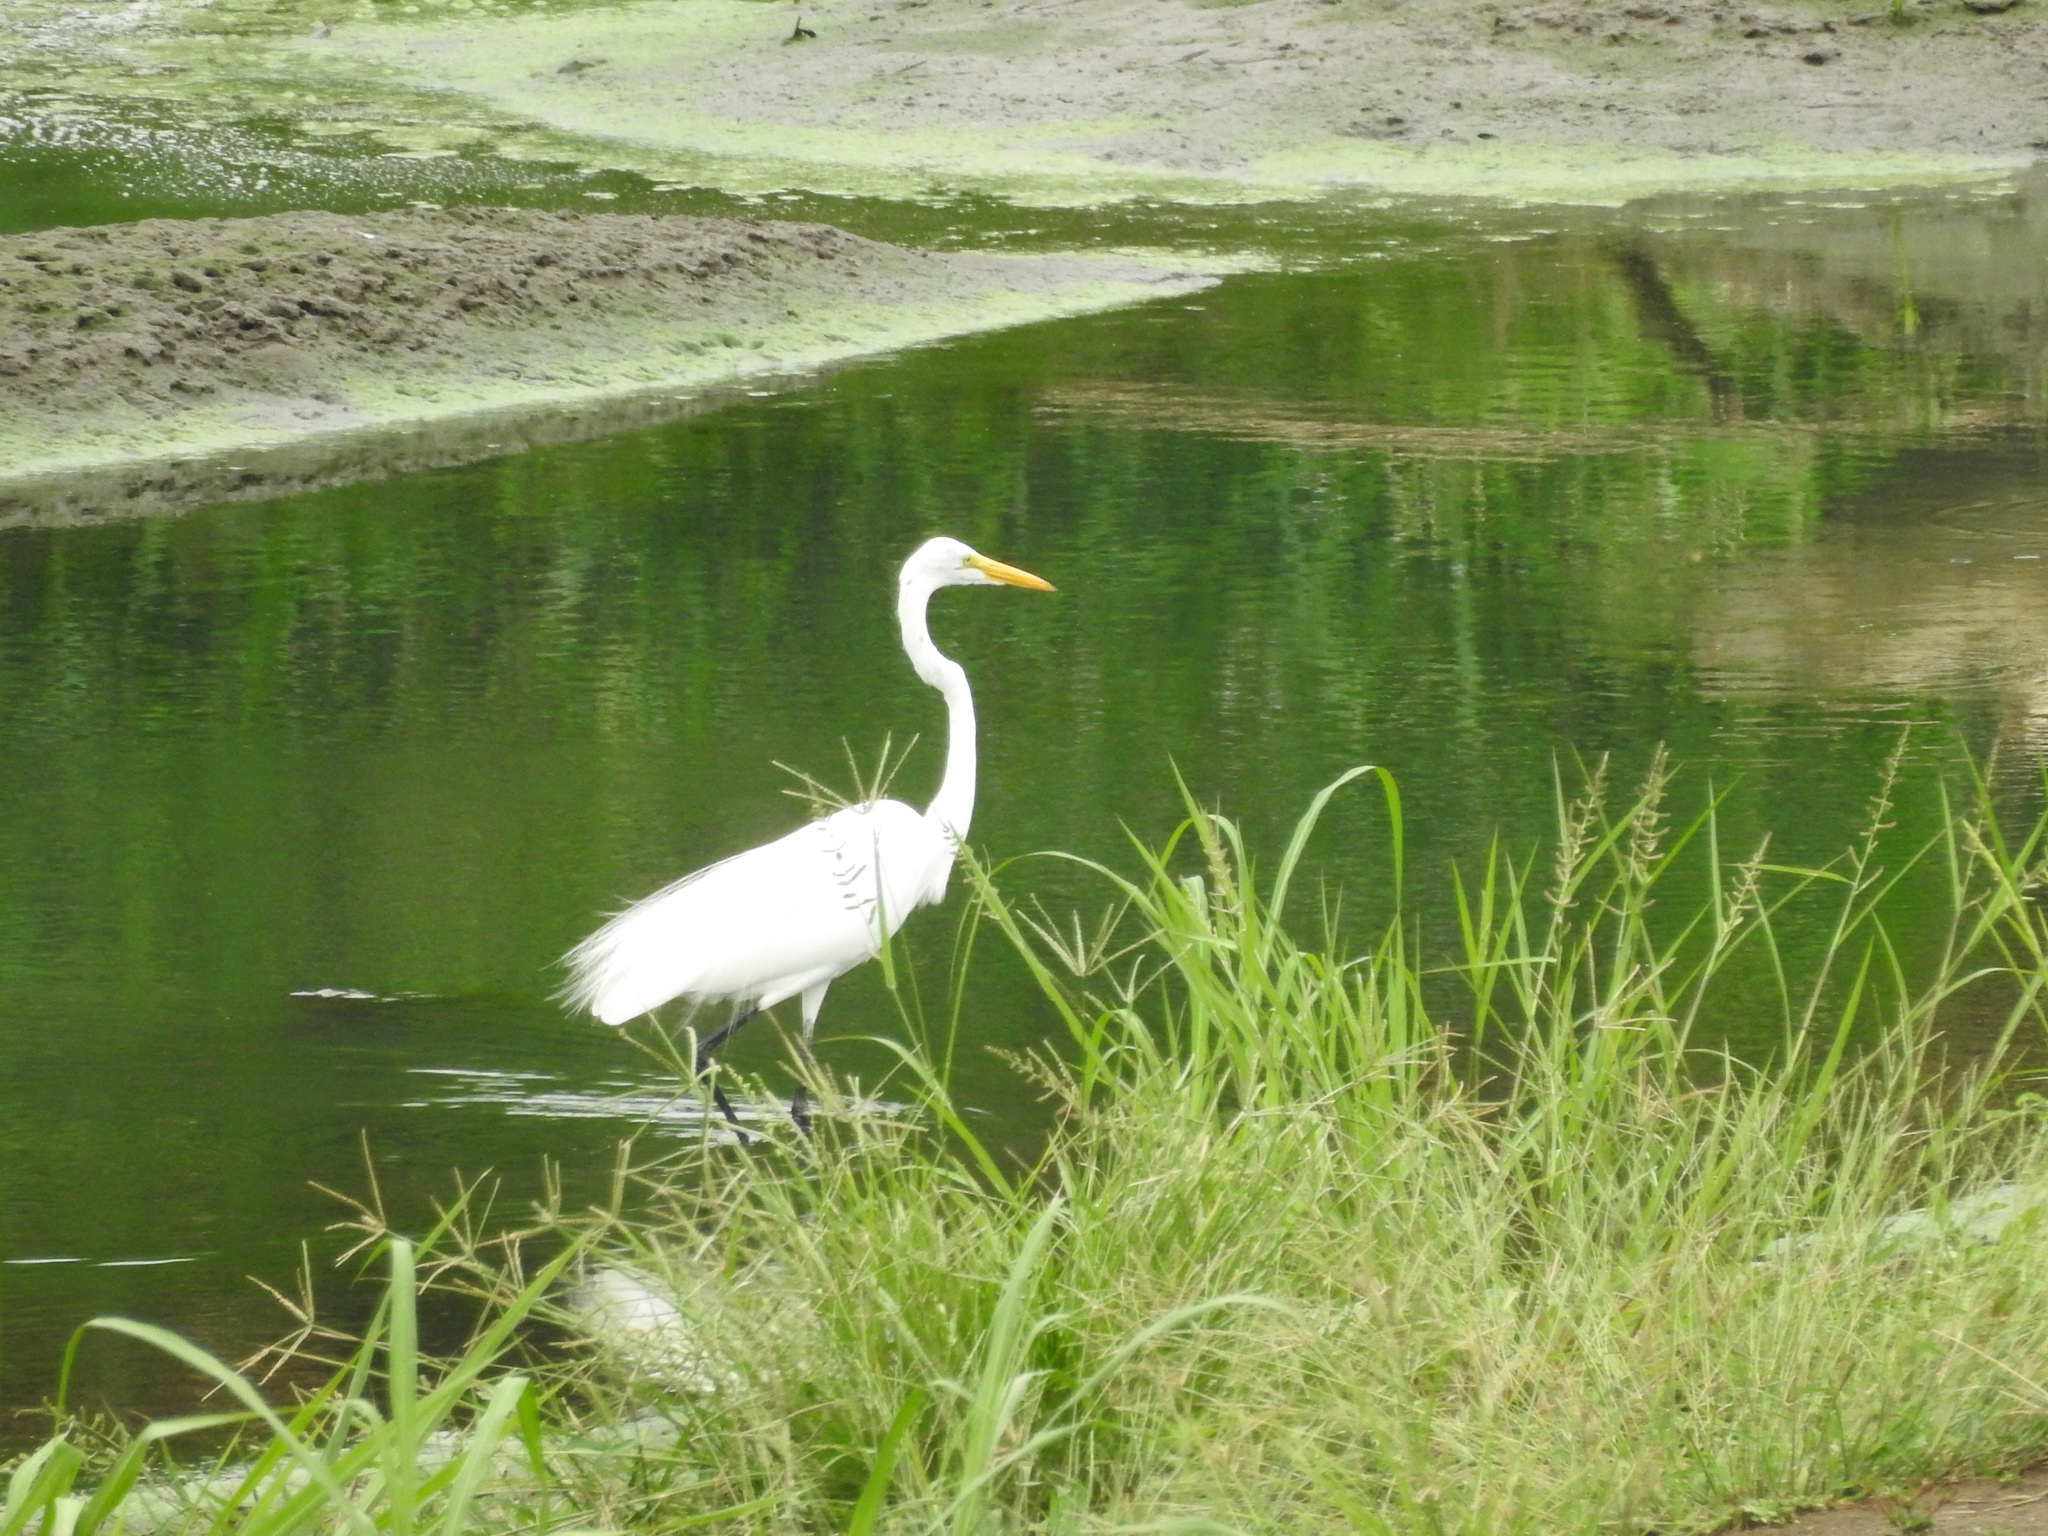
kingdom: Animalia
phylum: Chordata
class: Aves
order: Pelecaniformes
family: Ardeidae
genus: Ardea
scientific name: Ardea alba
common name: Great egret
